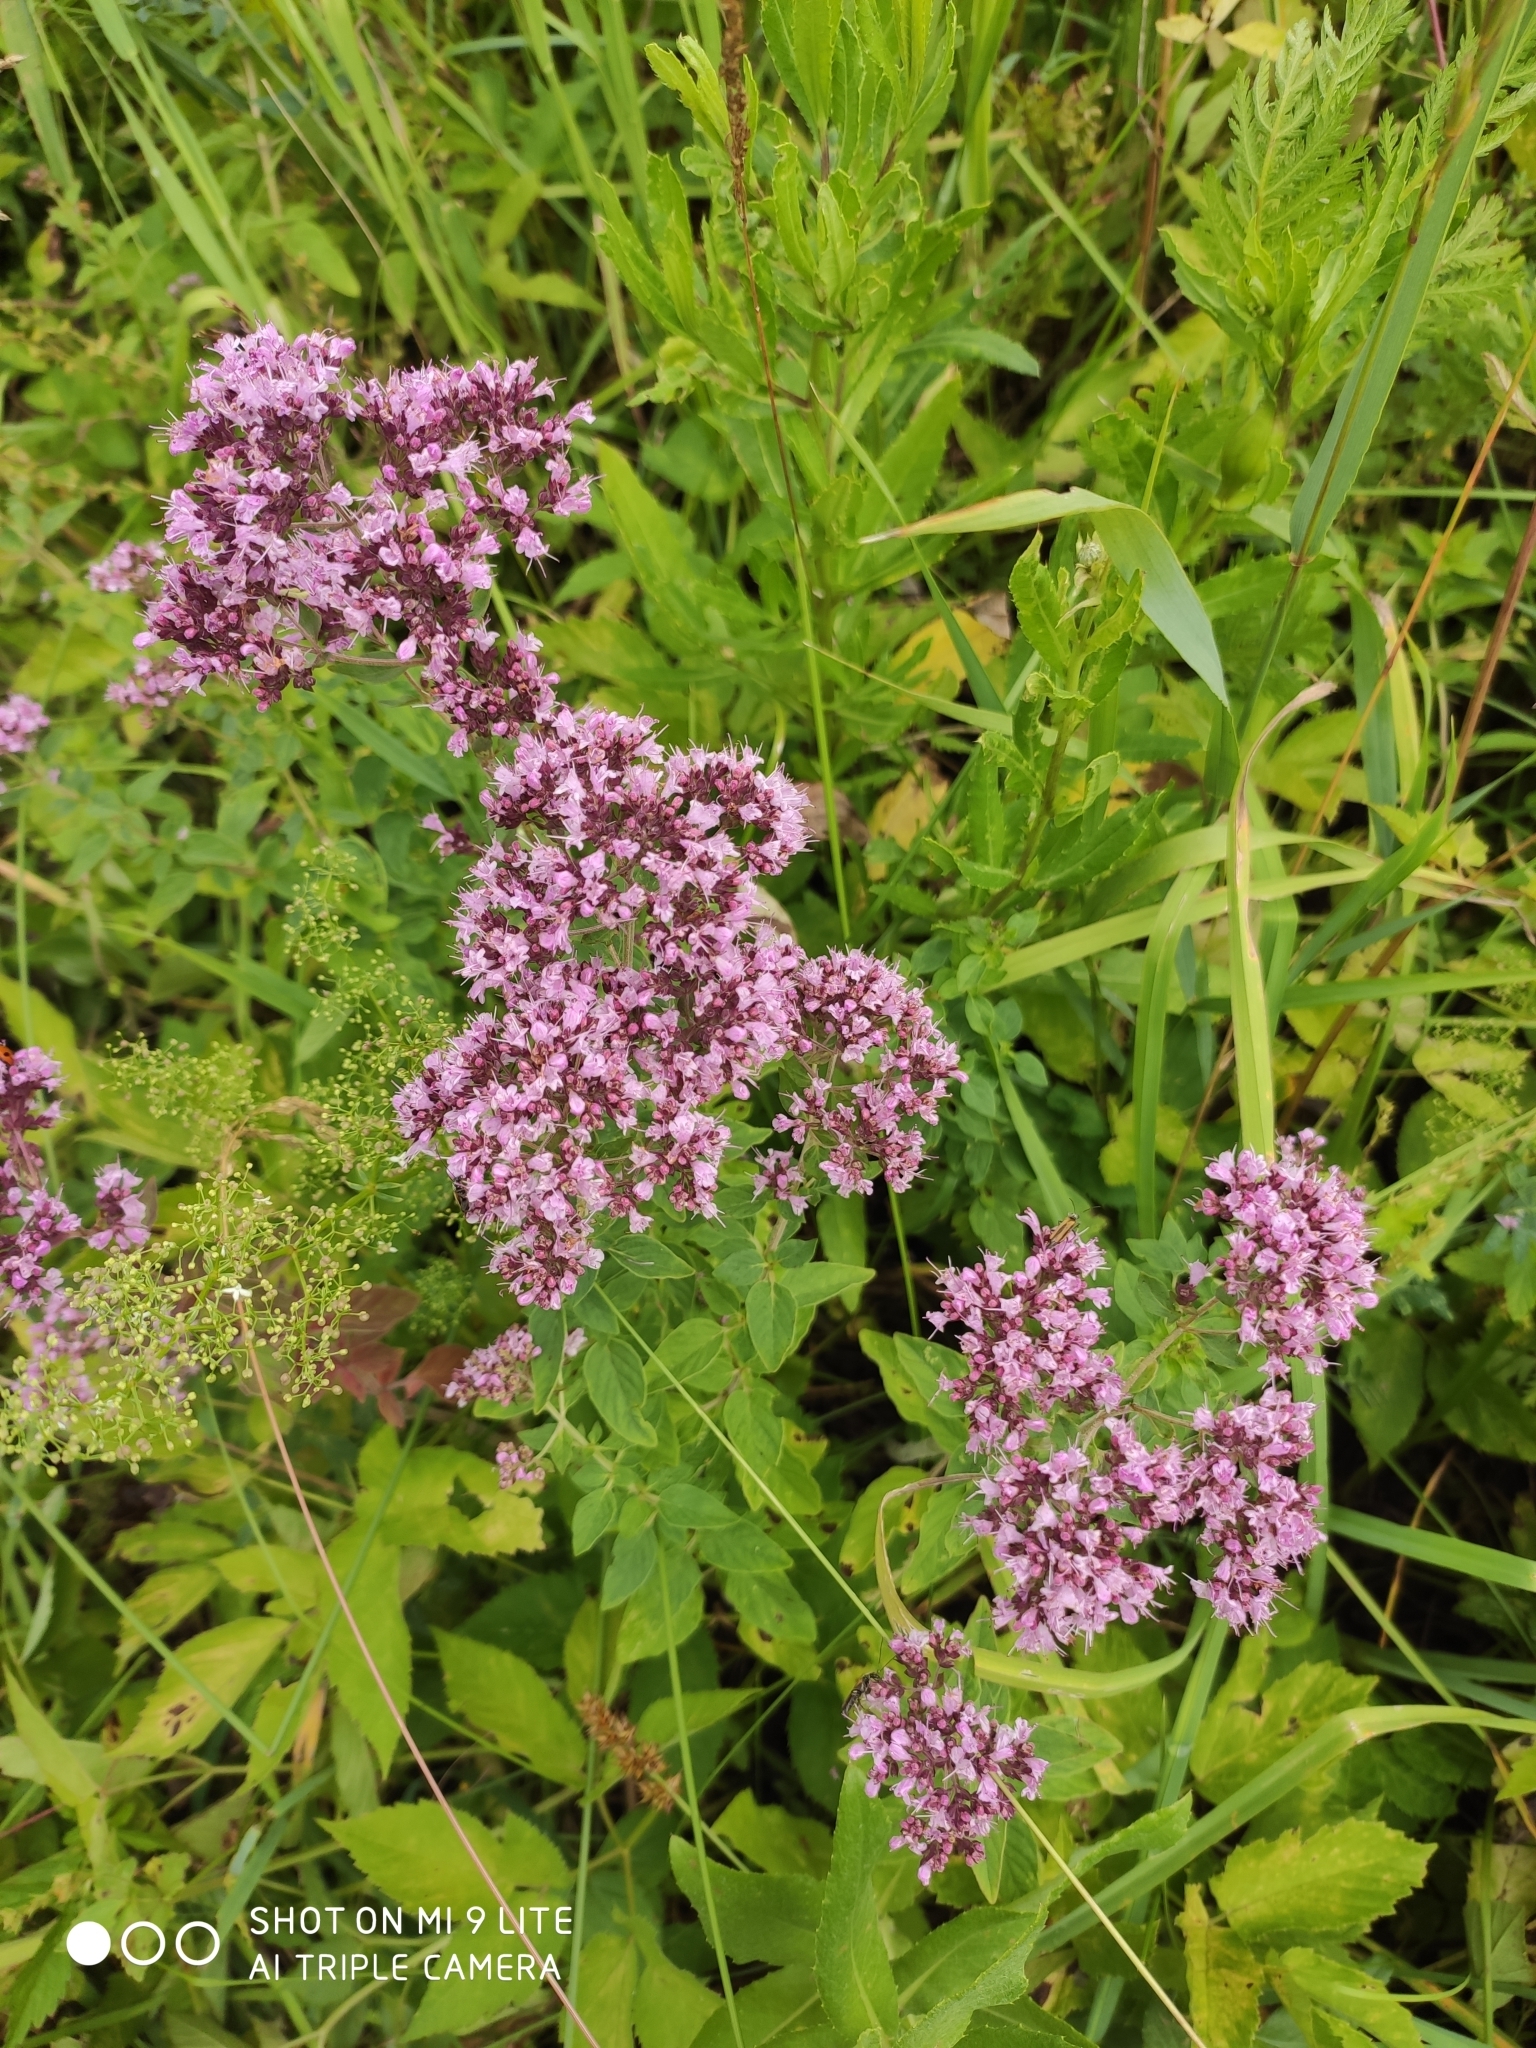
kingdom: Plantae
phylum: Tracheophyta
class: Magnoliopsida
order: Lamiales
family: Lamiaceae
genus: Origanum
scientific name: Origanum vulgare
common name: Wild marjoram
